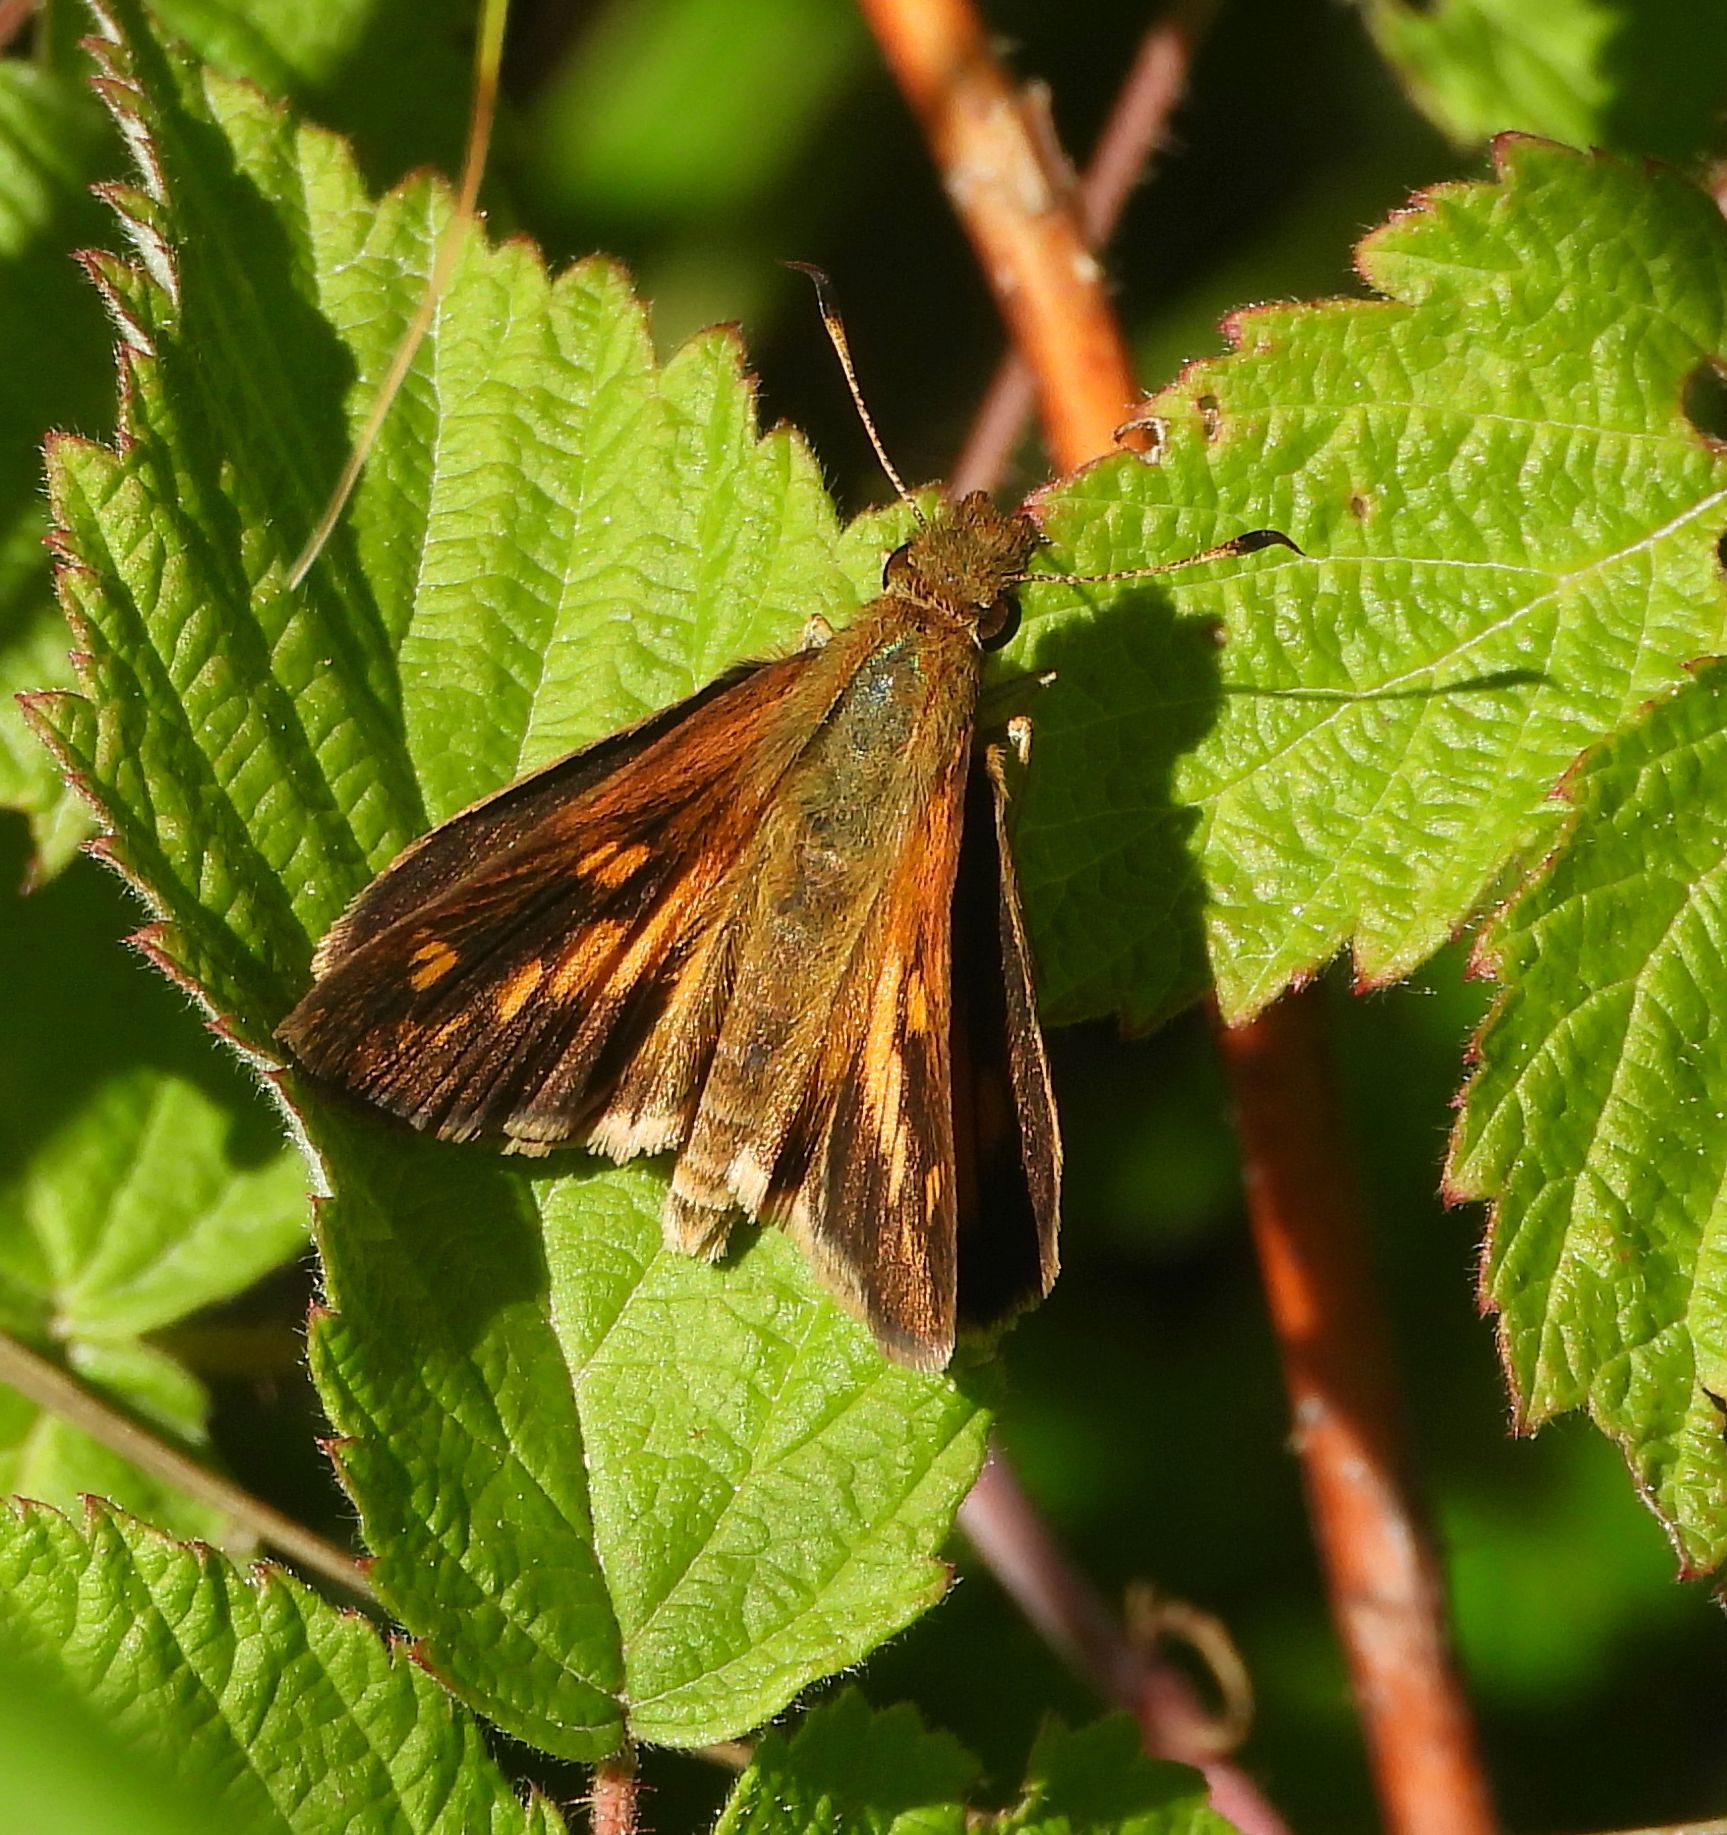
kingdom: Animalia
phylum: Arthropoda
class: Insecta
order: Lepidoptera
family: Hesperiidae
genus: Poanes
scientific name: Poanes viator
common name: Broad-winged skipper
